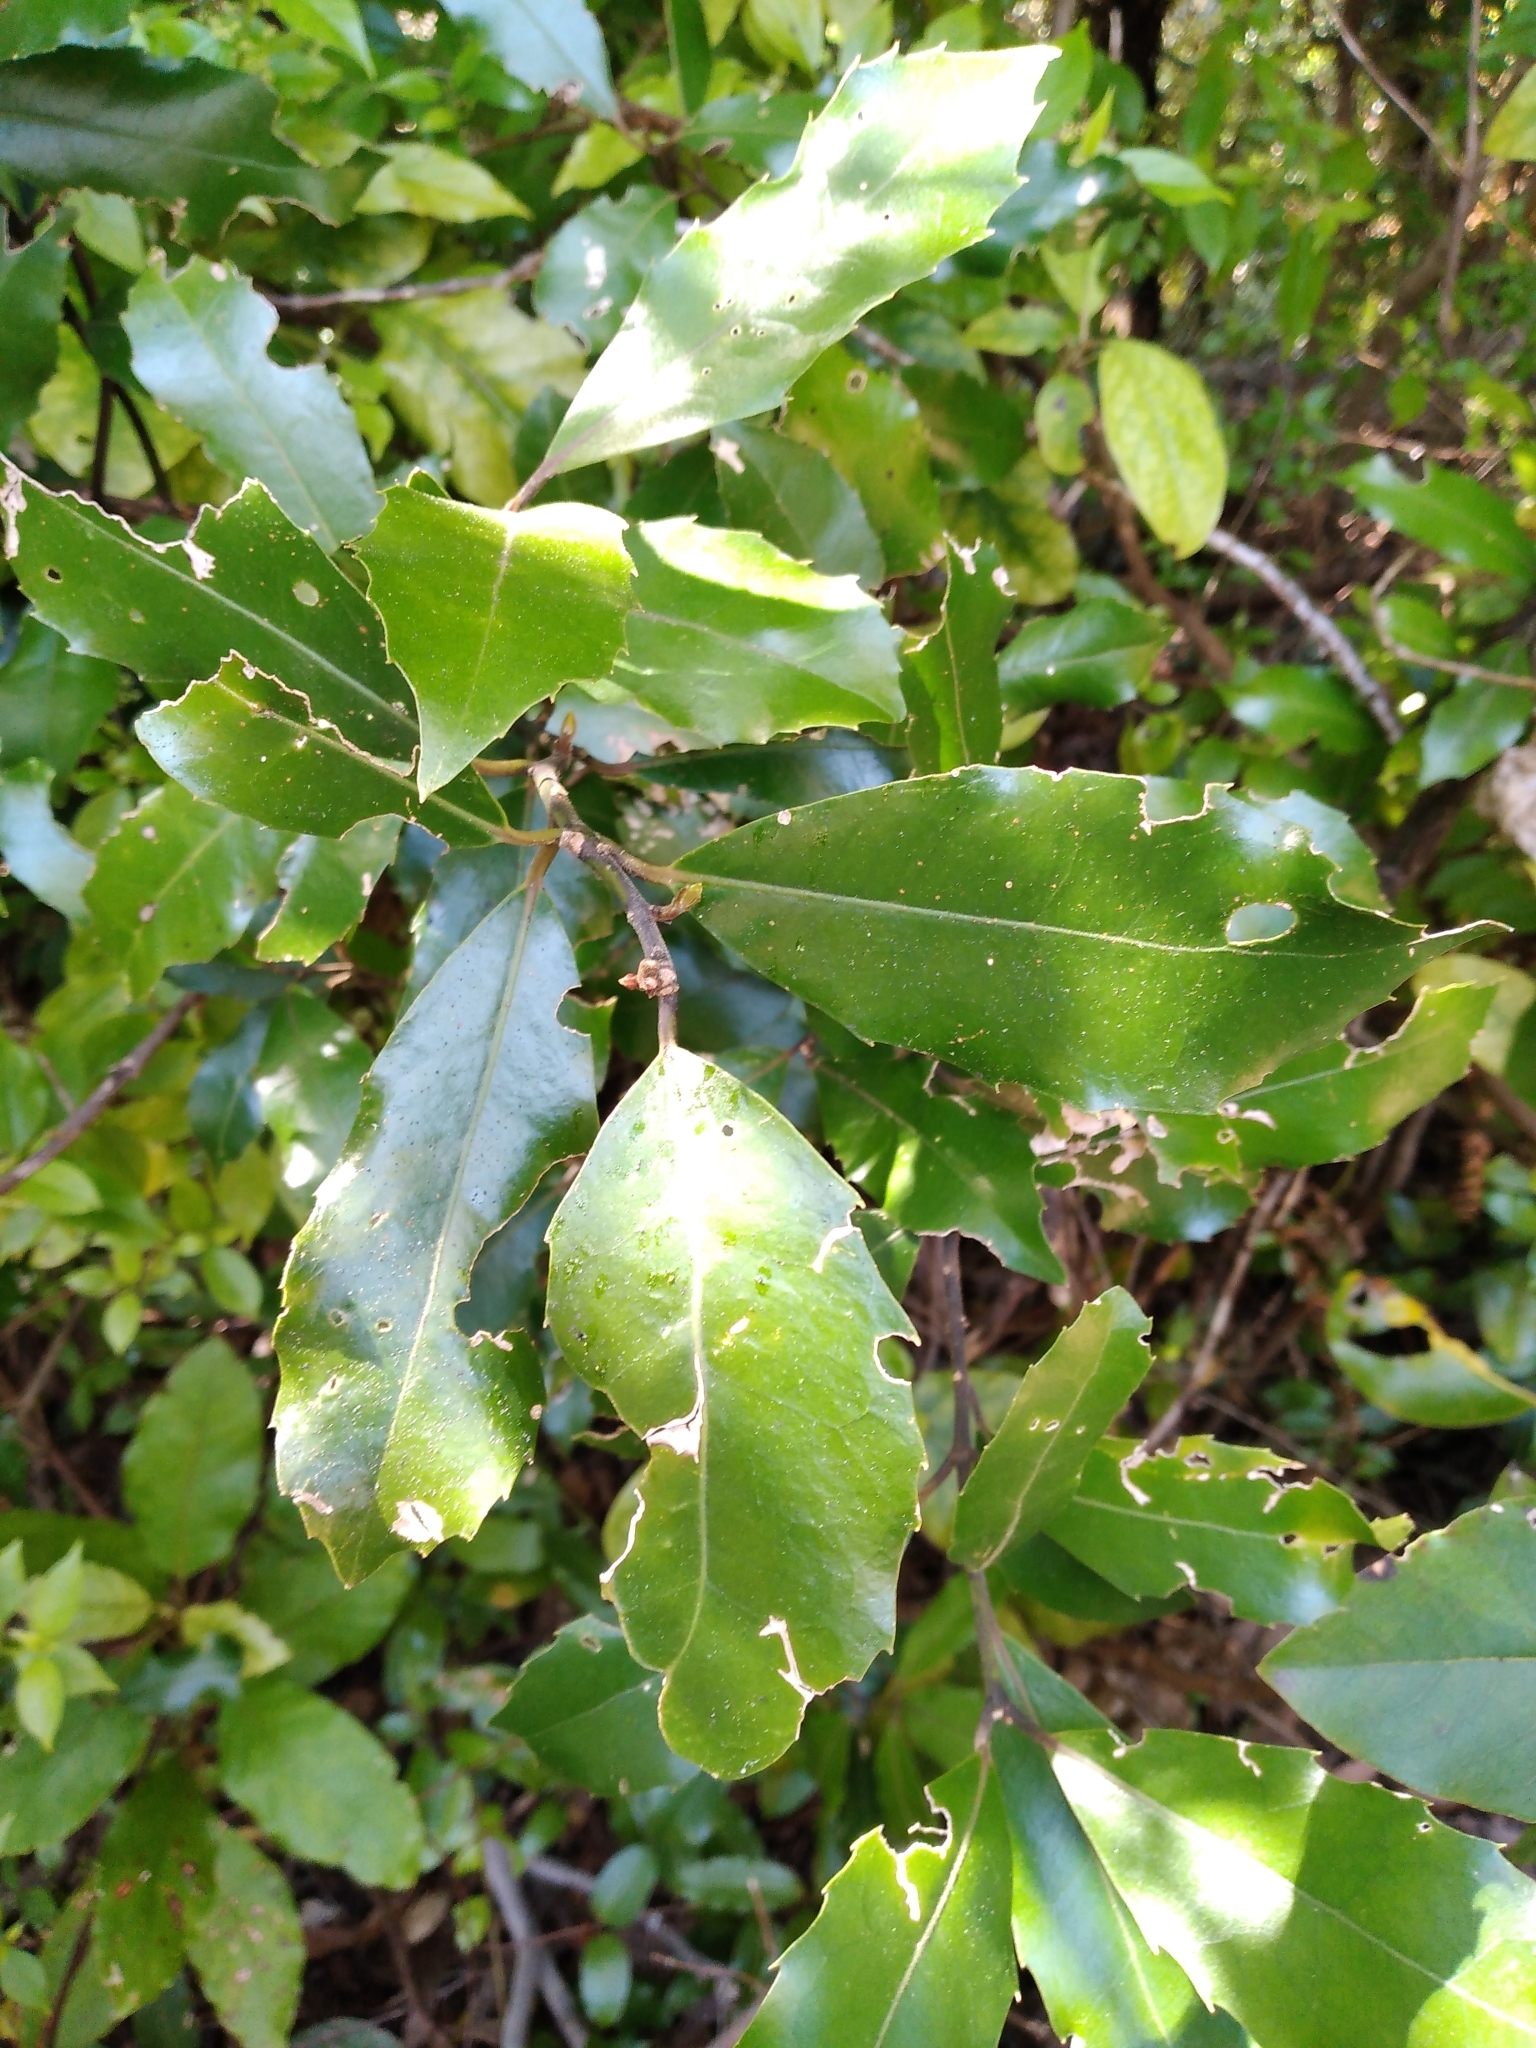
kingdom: Plantae
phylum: Tracheophyta
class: Magnoliopsida
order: Laurales
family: Monimiaceae
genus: Hedycarya
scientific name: Hedycarya arborea
